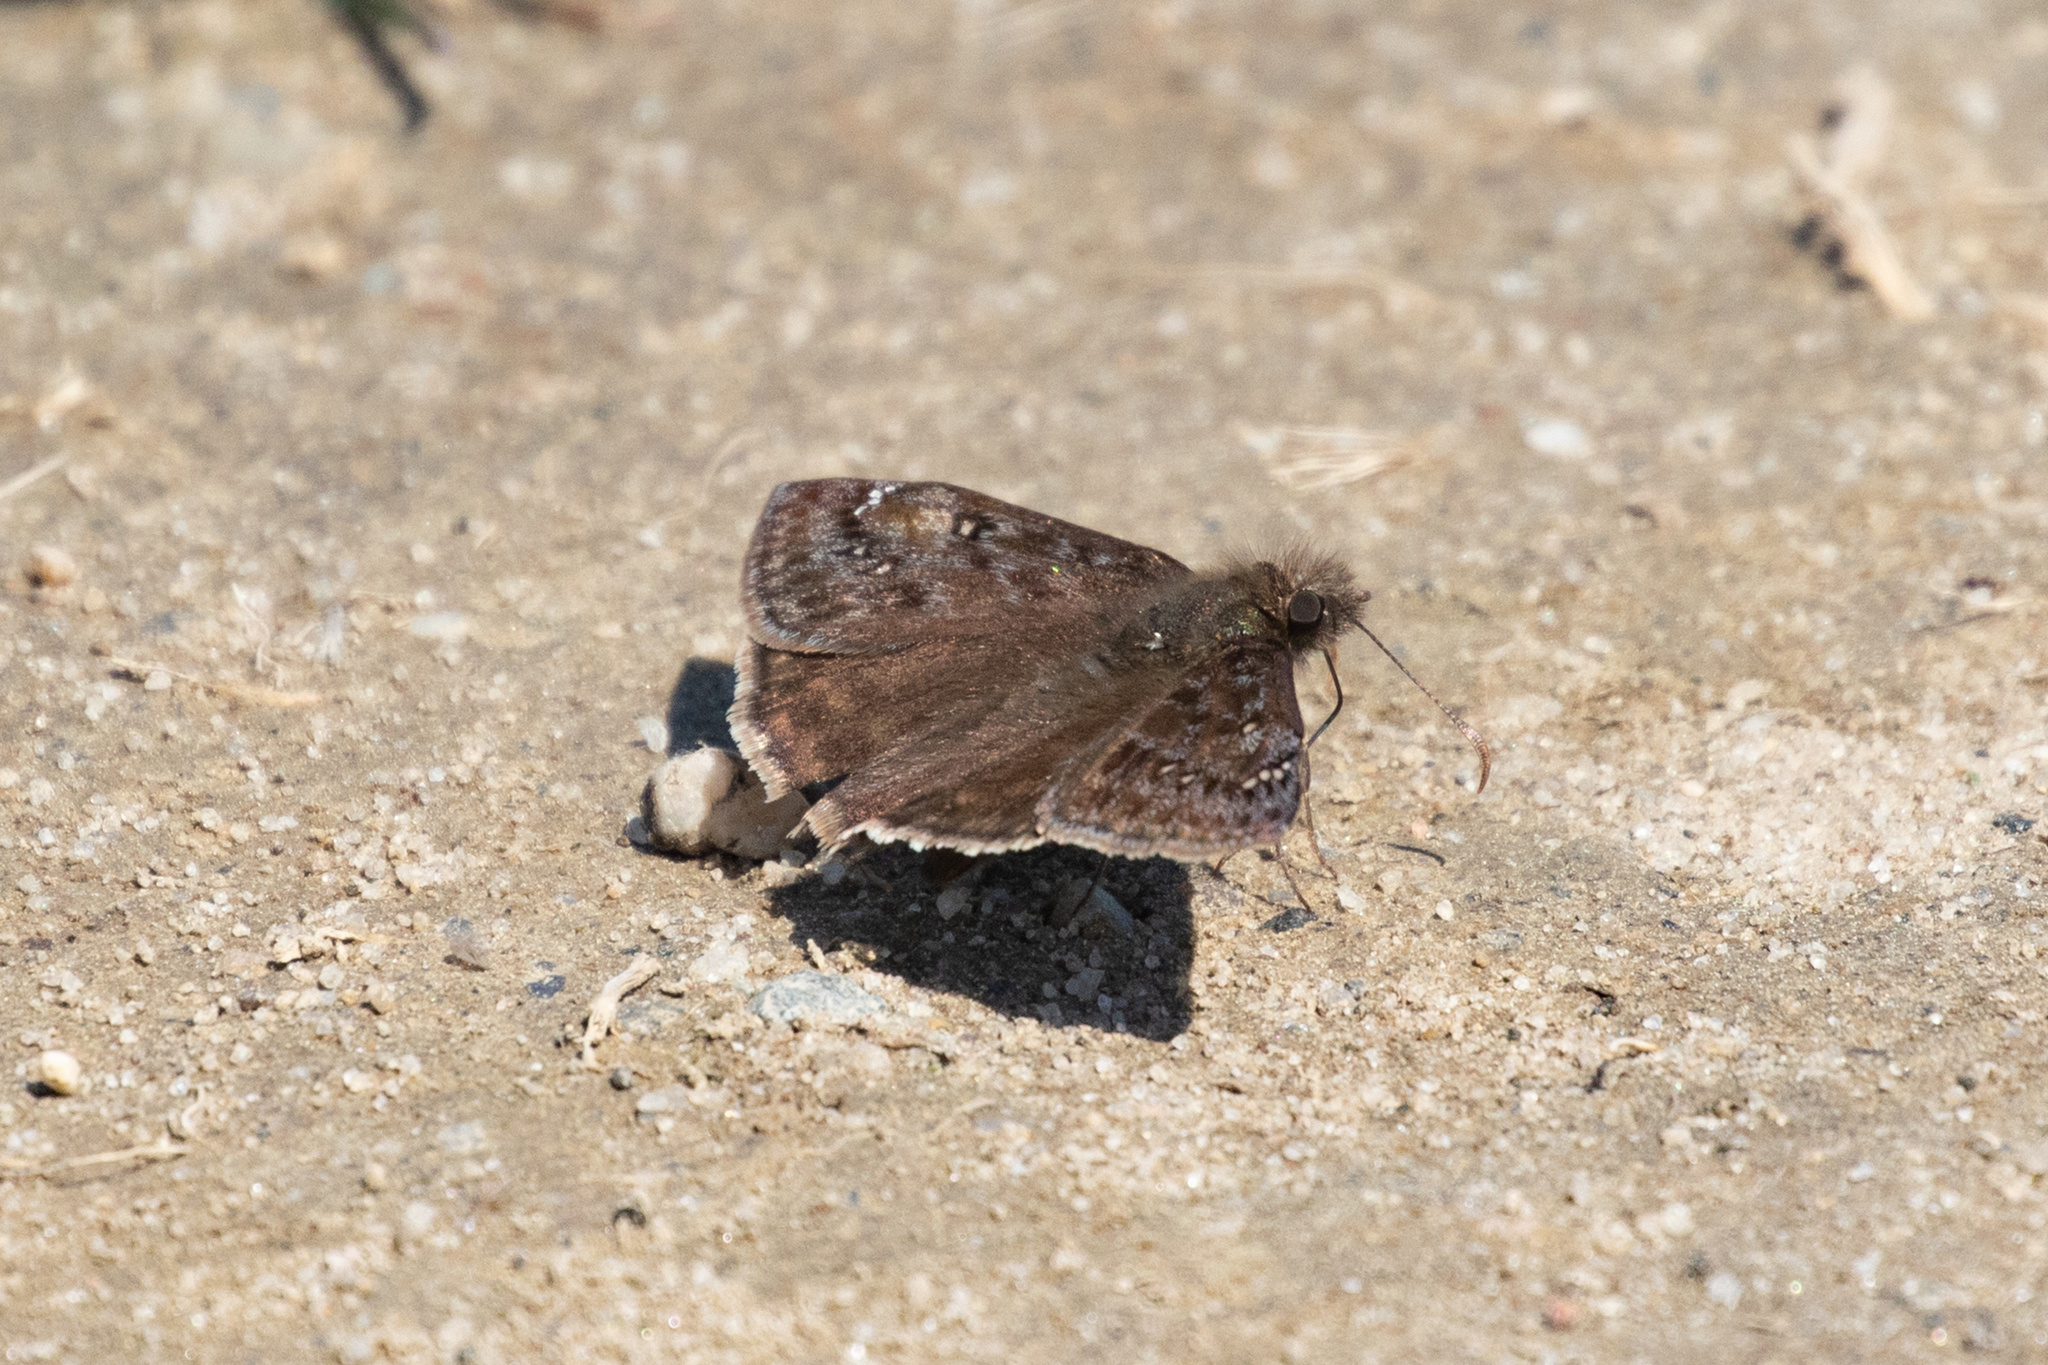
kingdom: Animalia
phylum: Arthropoda
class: Insecta
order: Lepidoptera
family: Hesperiidae
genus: Erynnis
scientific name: Erynnis juvenalis
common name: Juvenal's duskywing
